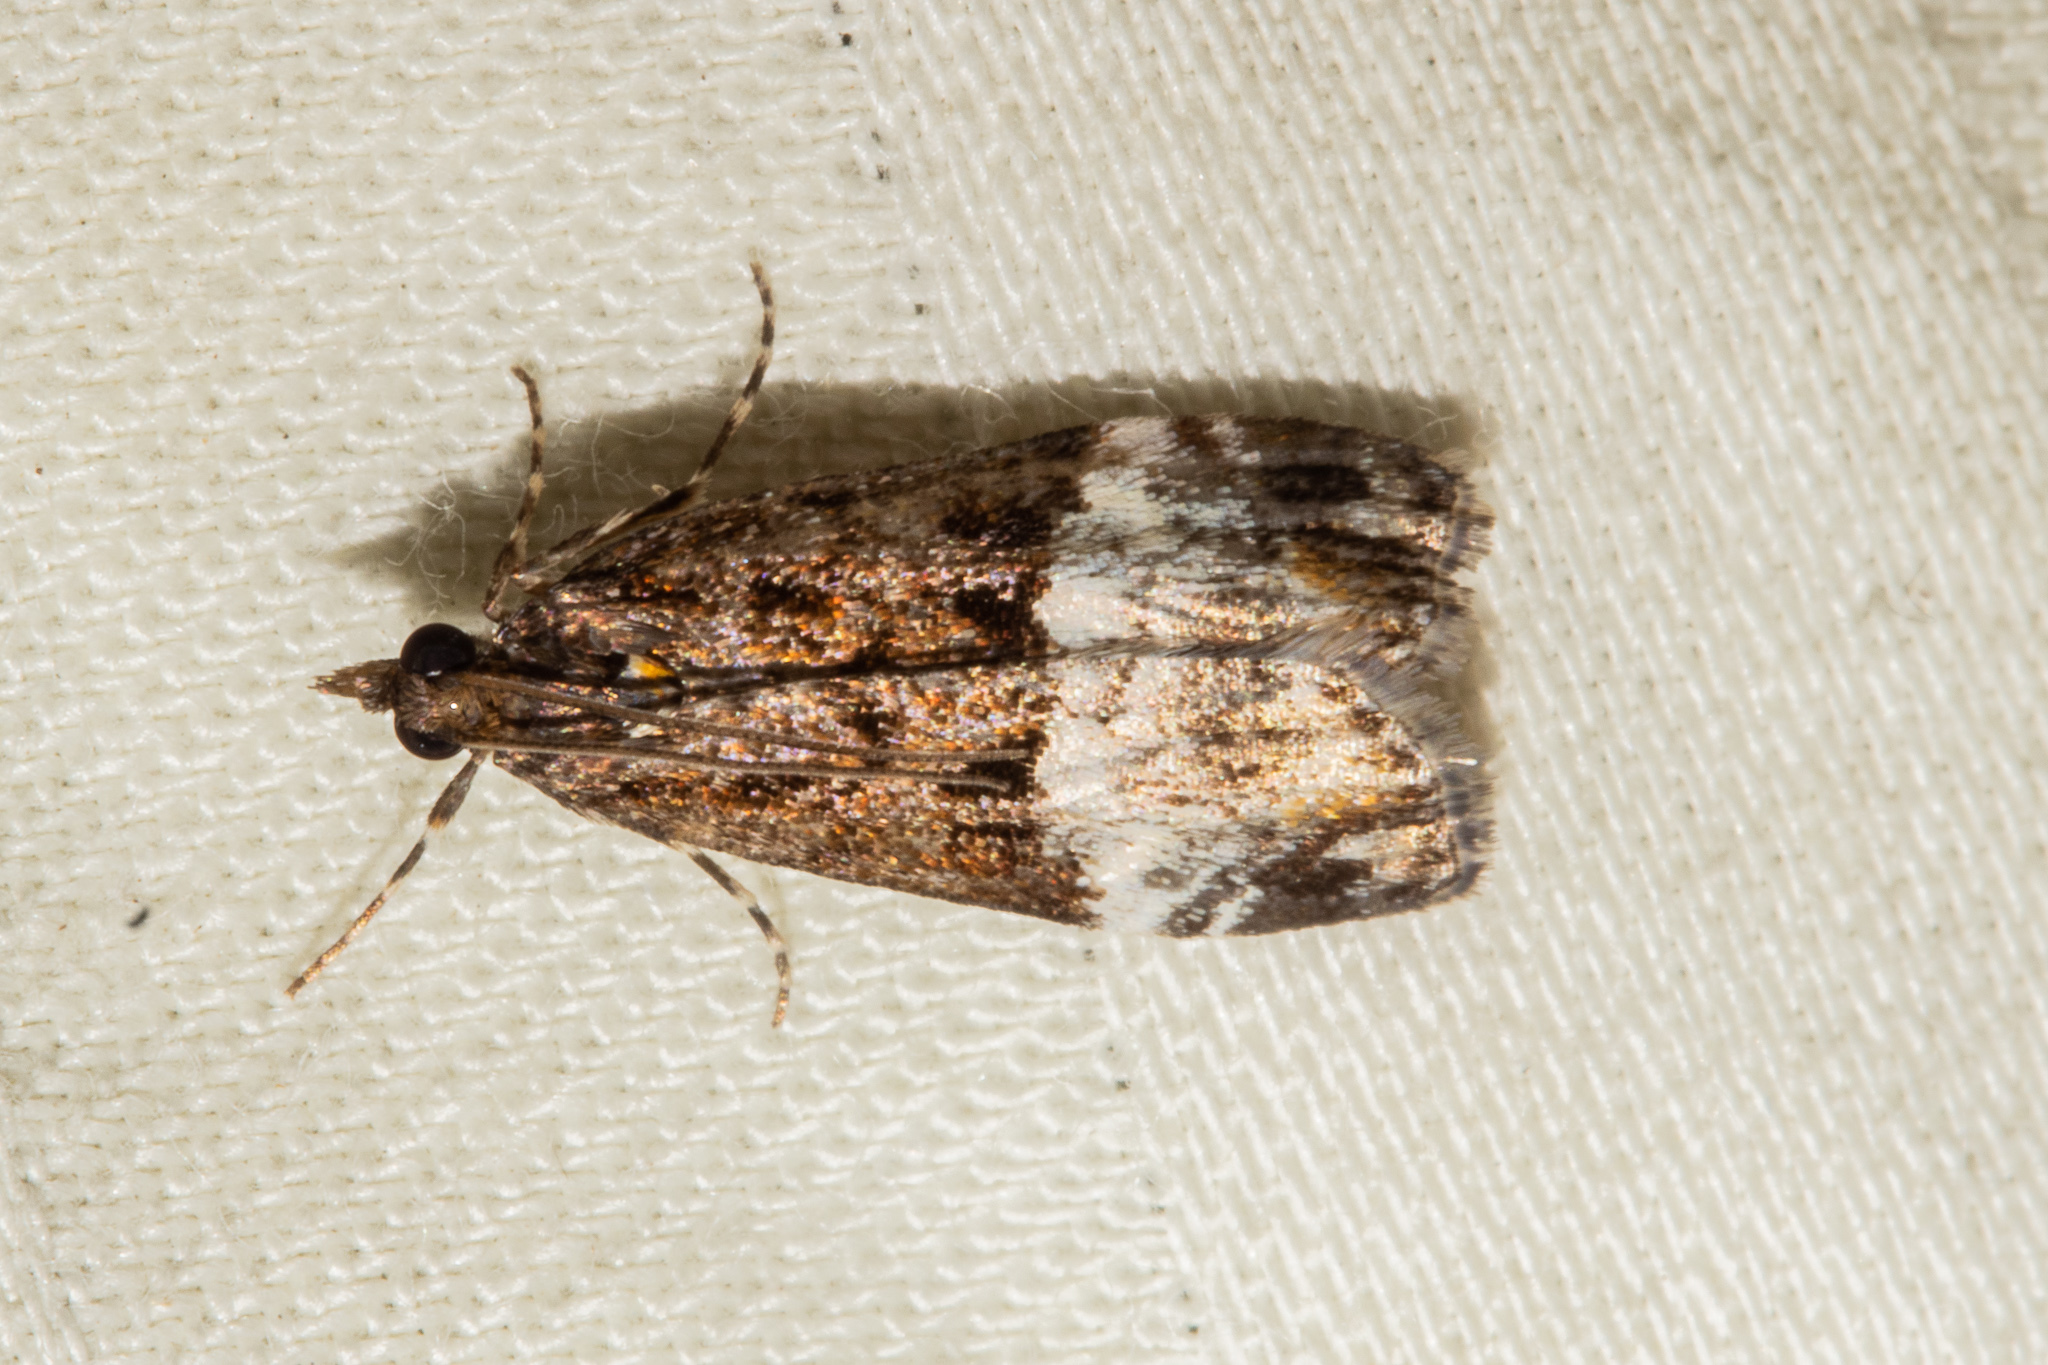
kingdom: Animalia
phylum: Arthropoda
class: Insecta
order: Lepidoptera
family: Crambidae
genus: Scoparia
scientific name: Scoparia minusculalis
